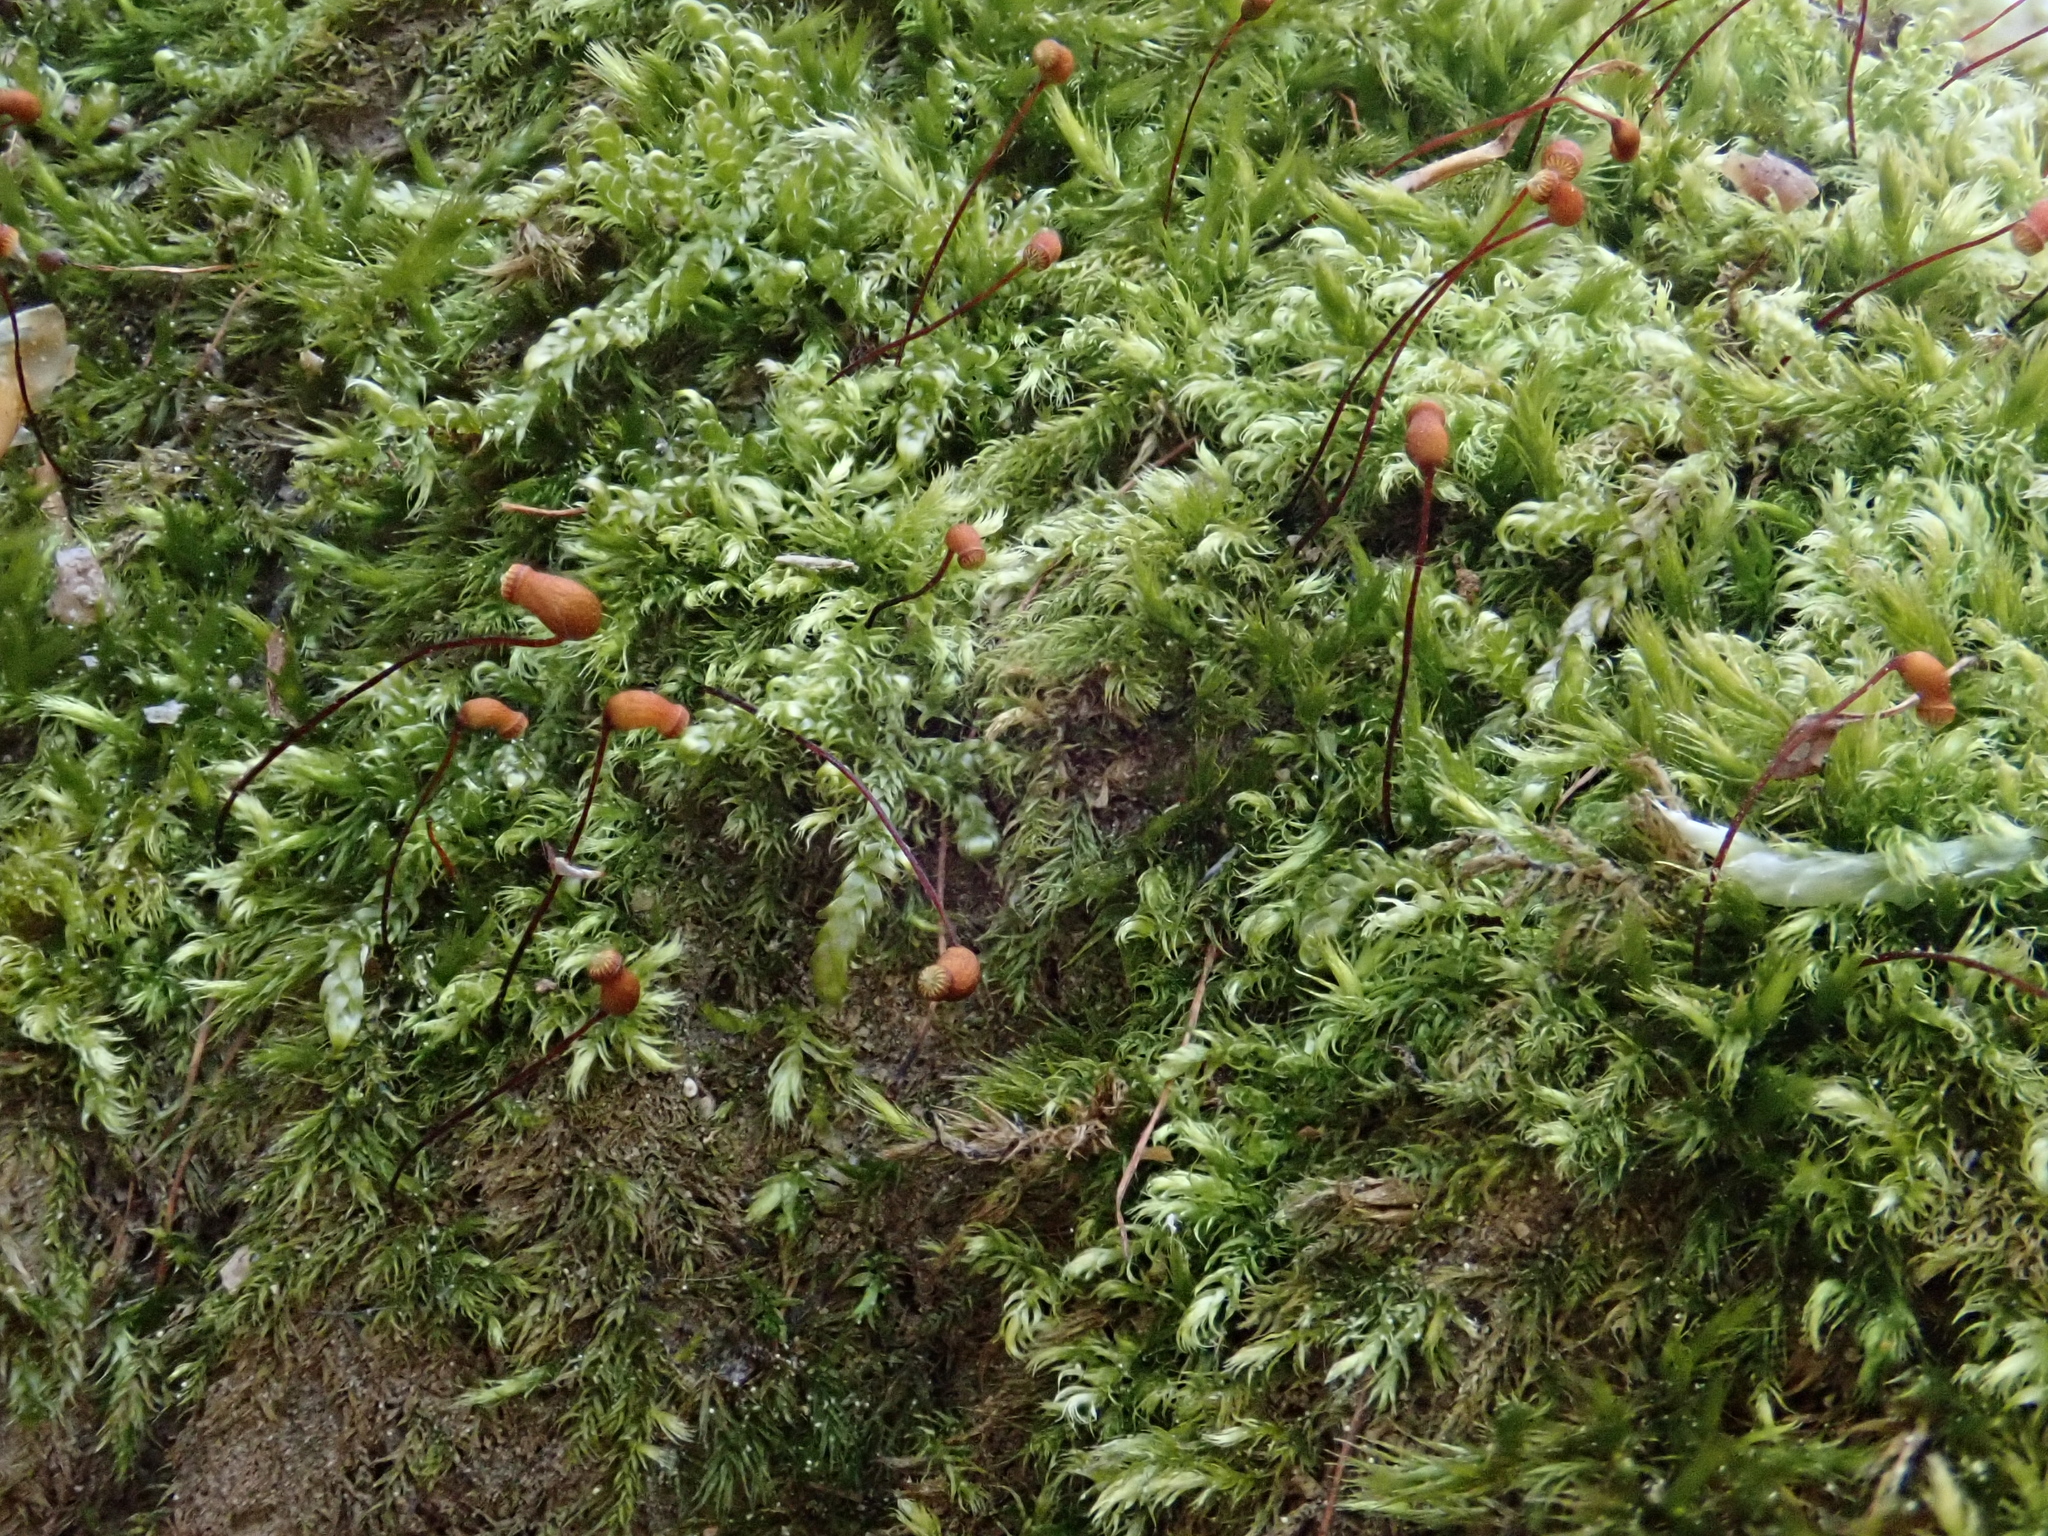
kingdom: Plantae
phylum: Bryophyta
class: Bryopsida
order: Hypnales
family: Brachytheciaceae
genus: Brachytheciastrum
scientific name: Brachytheciastrum velutinum
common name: Velvet feather-moss
